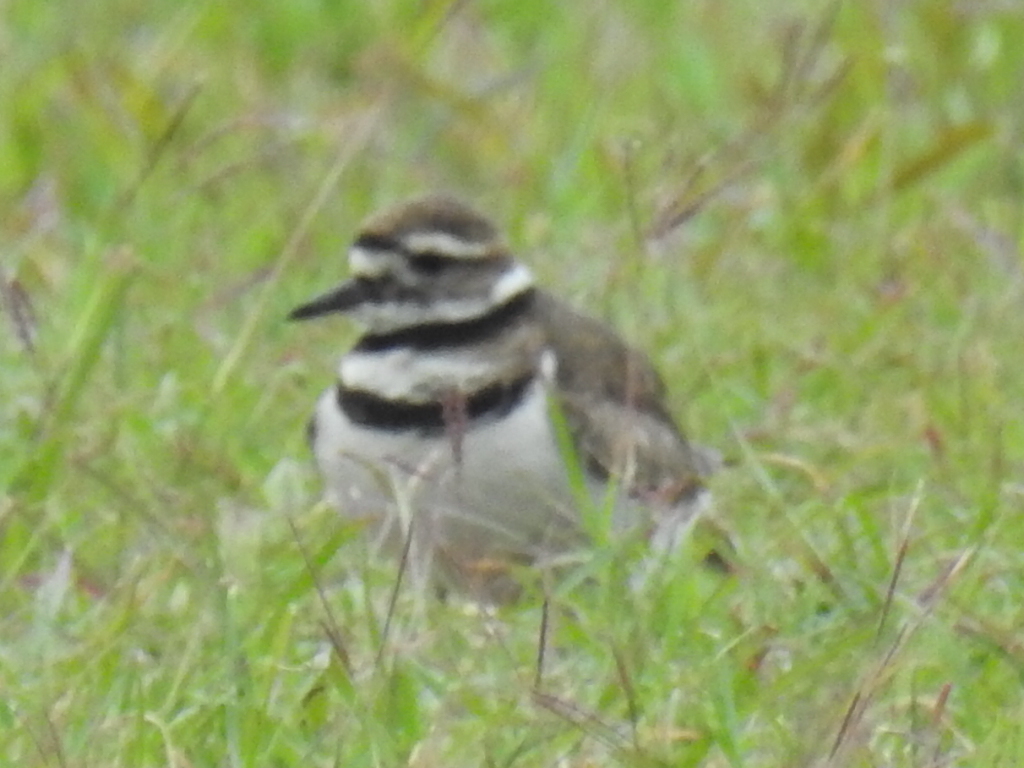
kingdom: Animalia
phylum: Chordata
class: Aves
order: Charadriiformes
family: Charadriidae
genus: Charadrius
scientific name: Charadrius vociferus
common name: Killdeer
